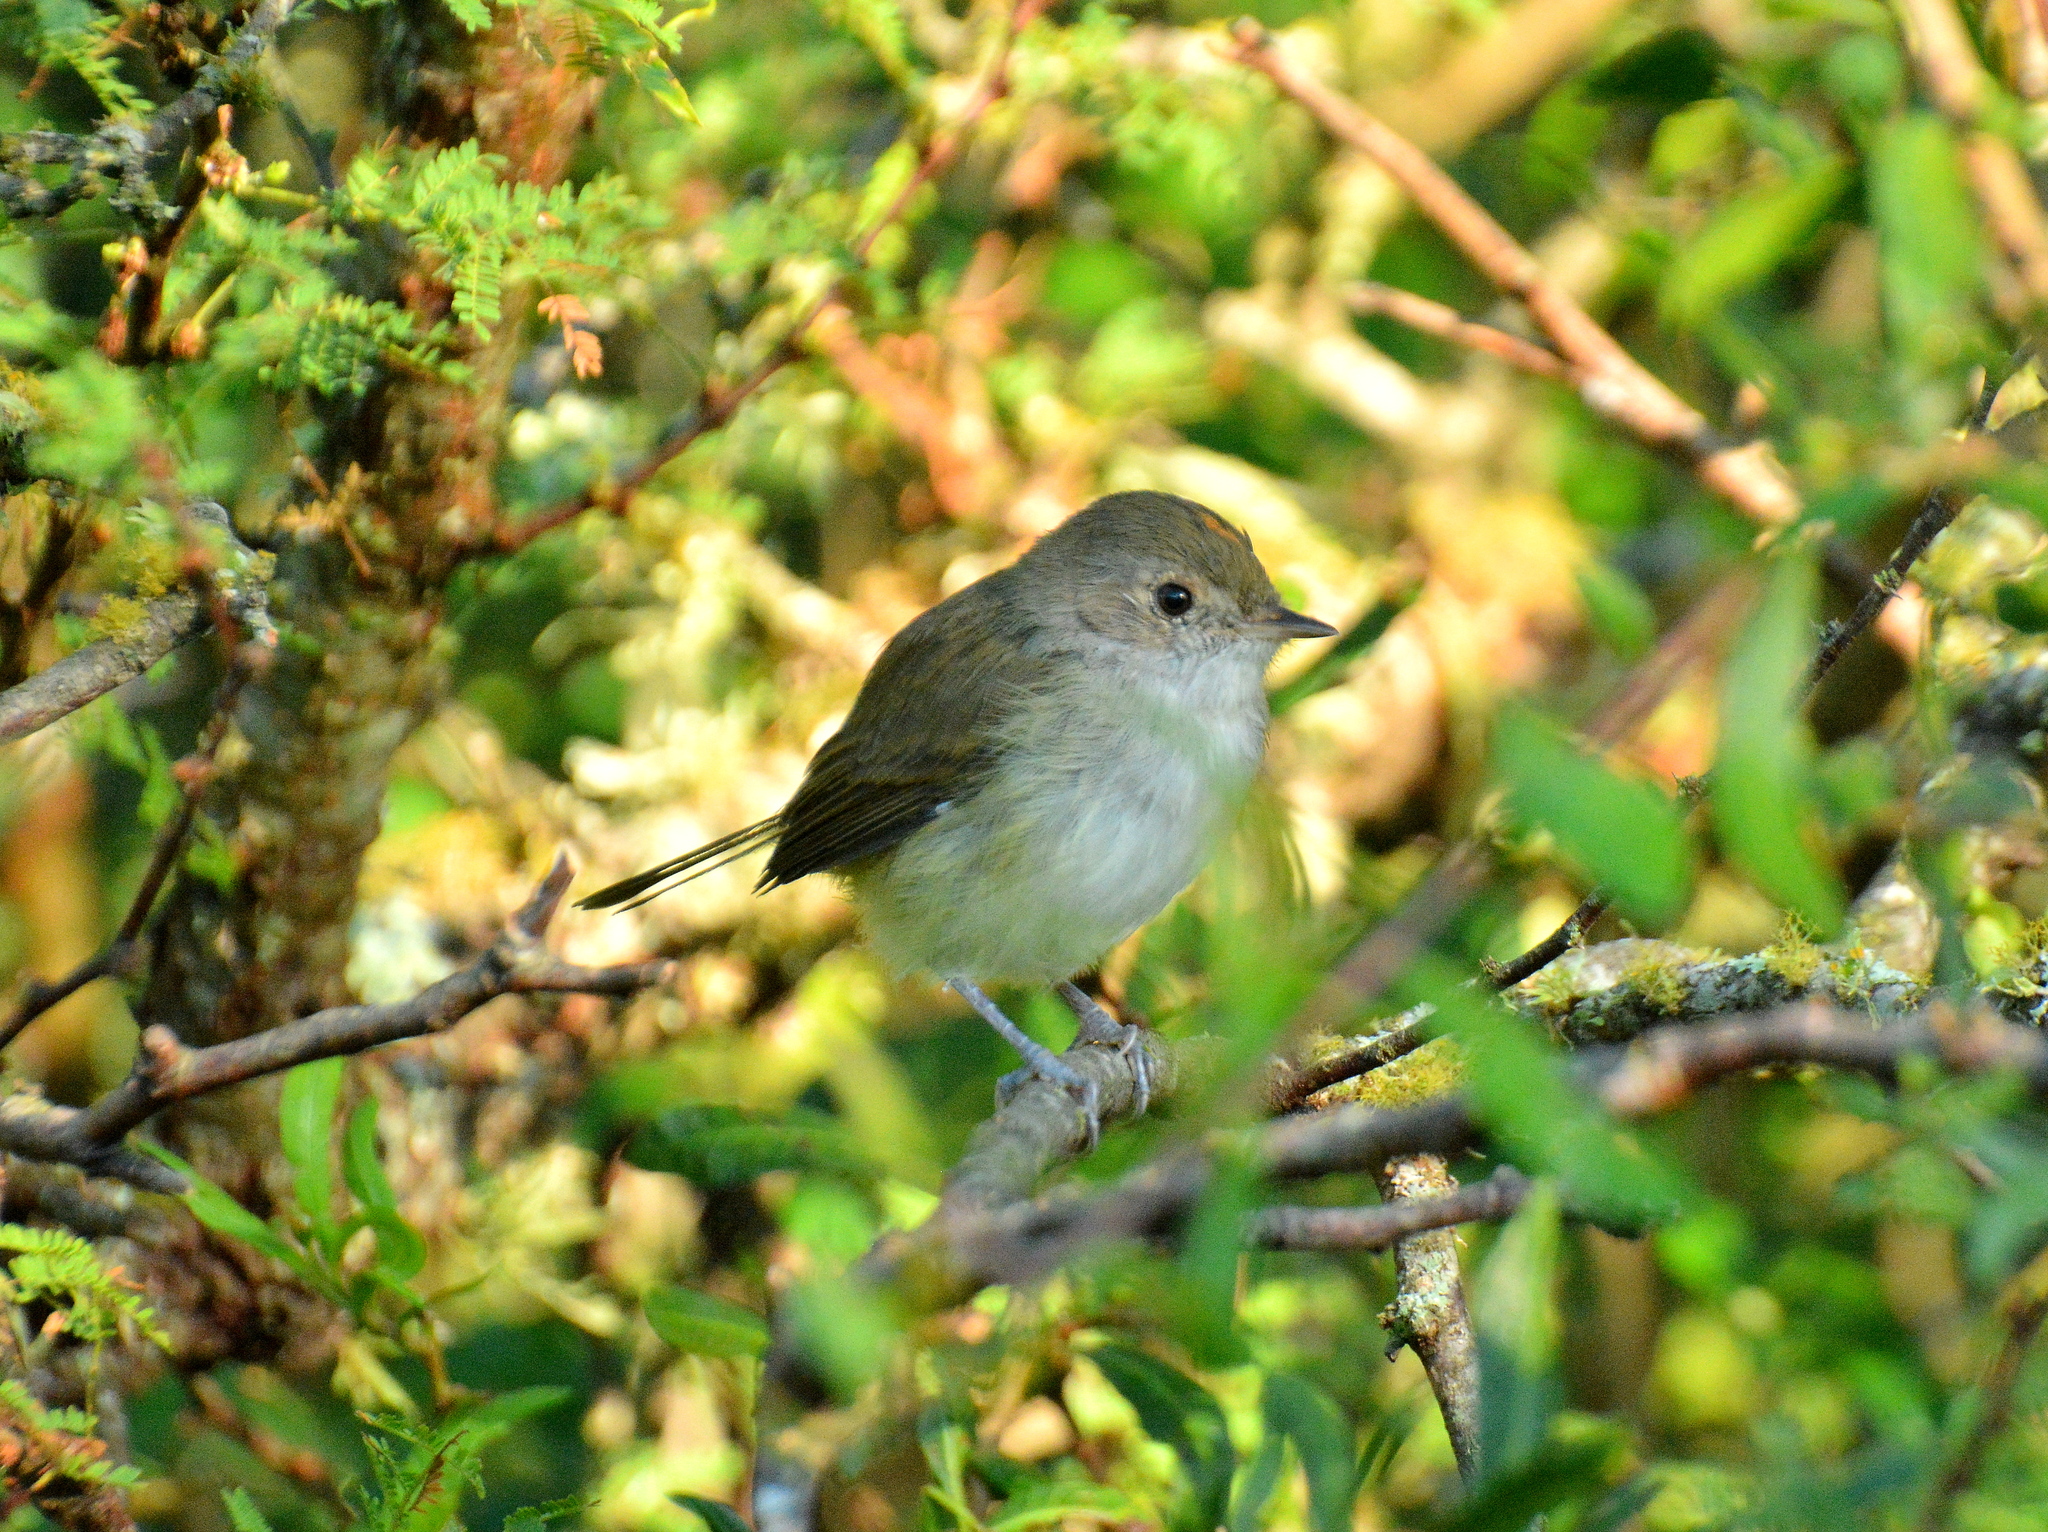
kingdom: Animalia
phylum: Chordata
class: Aves
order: Passeriformes
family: Tyrannidae
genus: Euscarthmus
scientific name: Euscarthmus meloryphus
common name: Tawny-crowned pygmy tyrant
